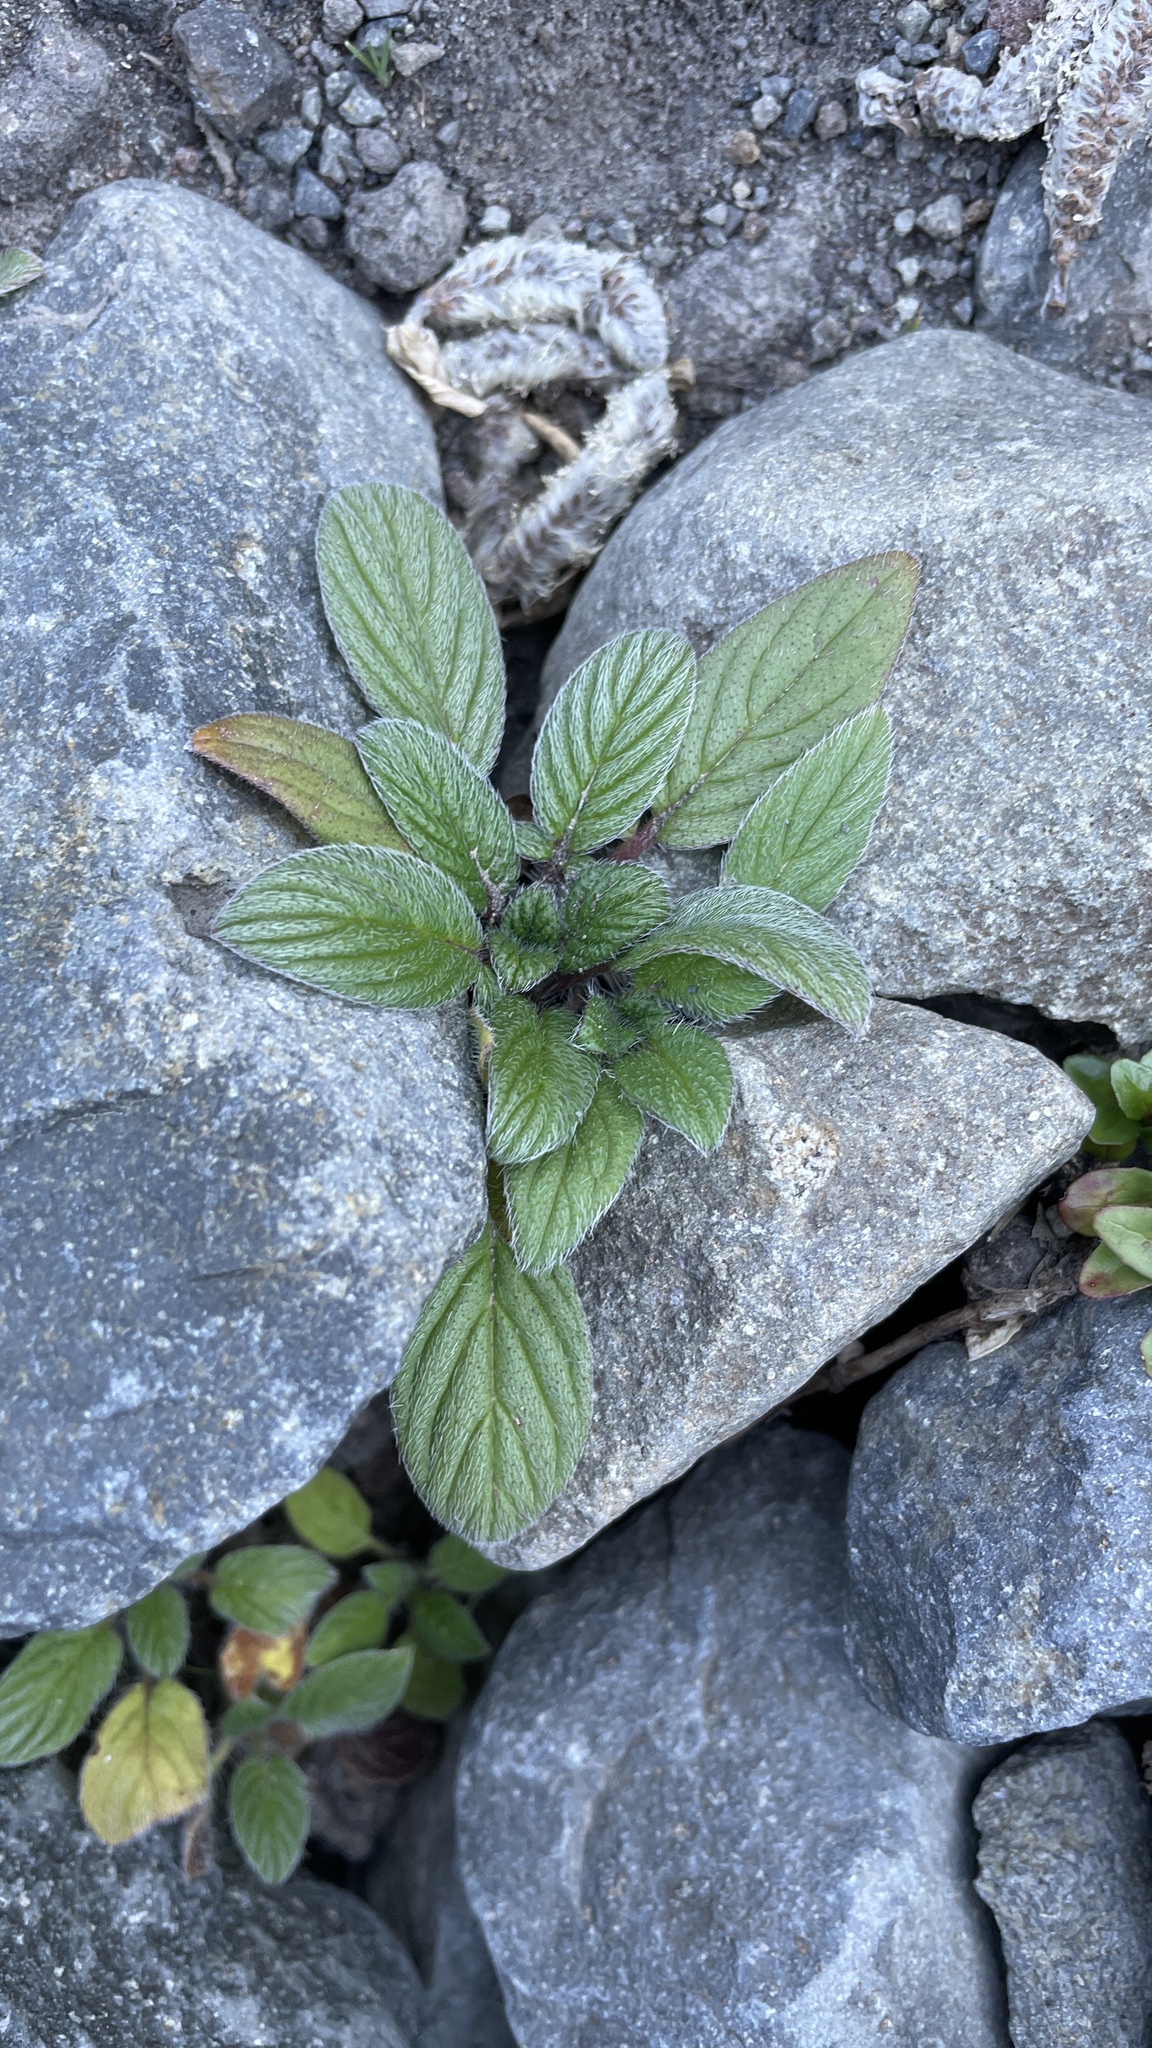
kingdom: Plantae
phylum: Tracheophyta
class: Magnoliopsida
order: Boraginales
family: Hydrophyllaceae
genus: Phacelia
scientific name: Phacelia hastata
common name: Silver-leaved phacelia
